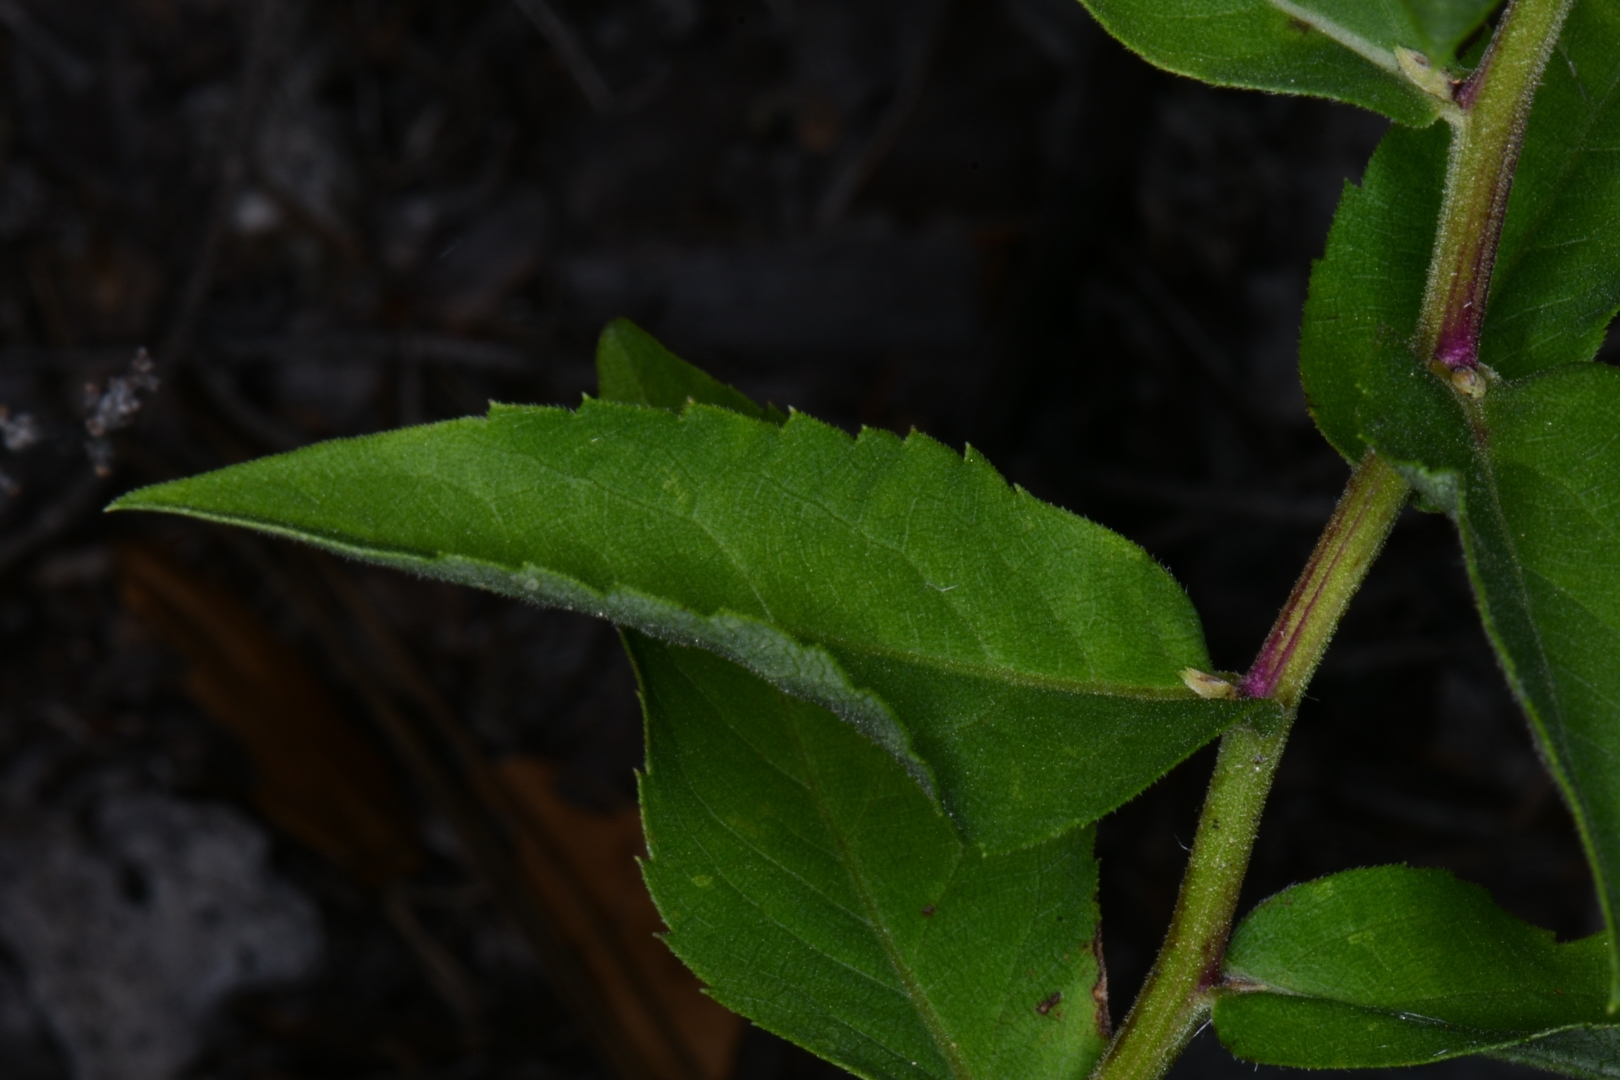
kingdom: Plantae
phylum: Tracheophyta
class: Magnoliopsida
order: Asterales
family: Asteraceae
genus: Eurybia
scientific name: Eurybia conspicua
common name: Showy aster
